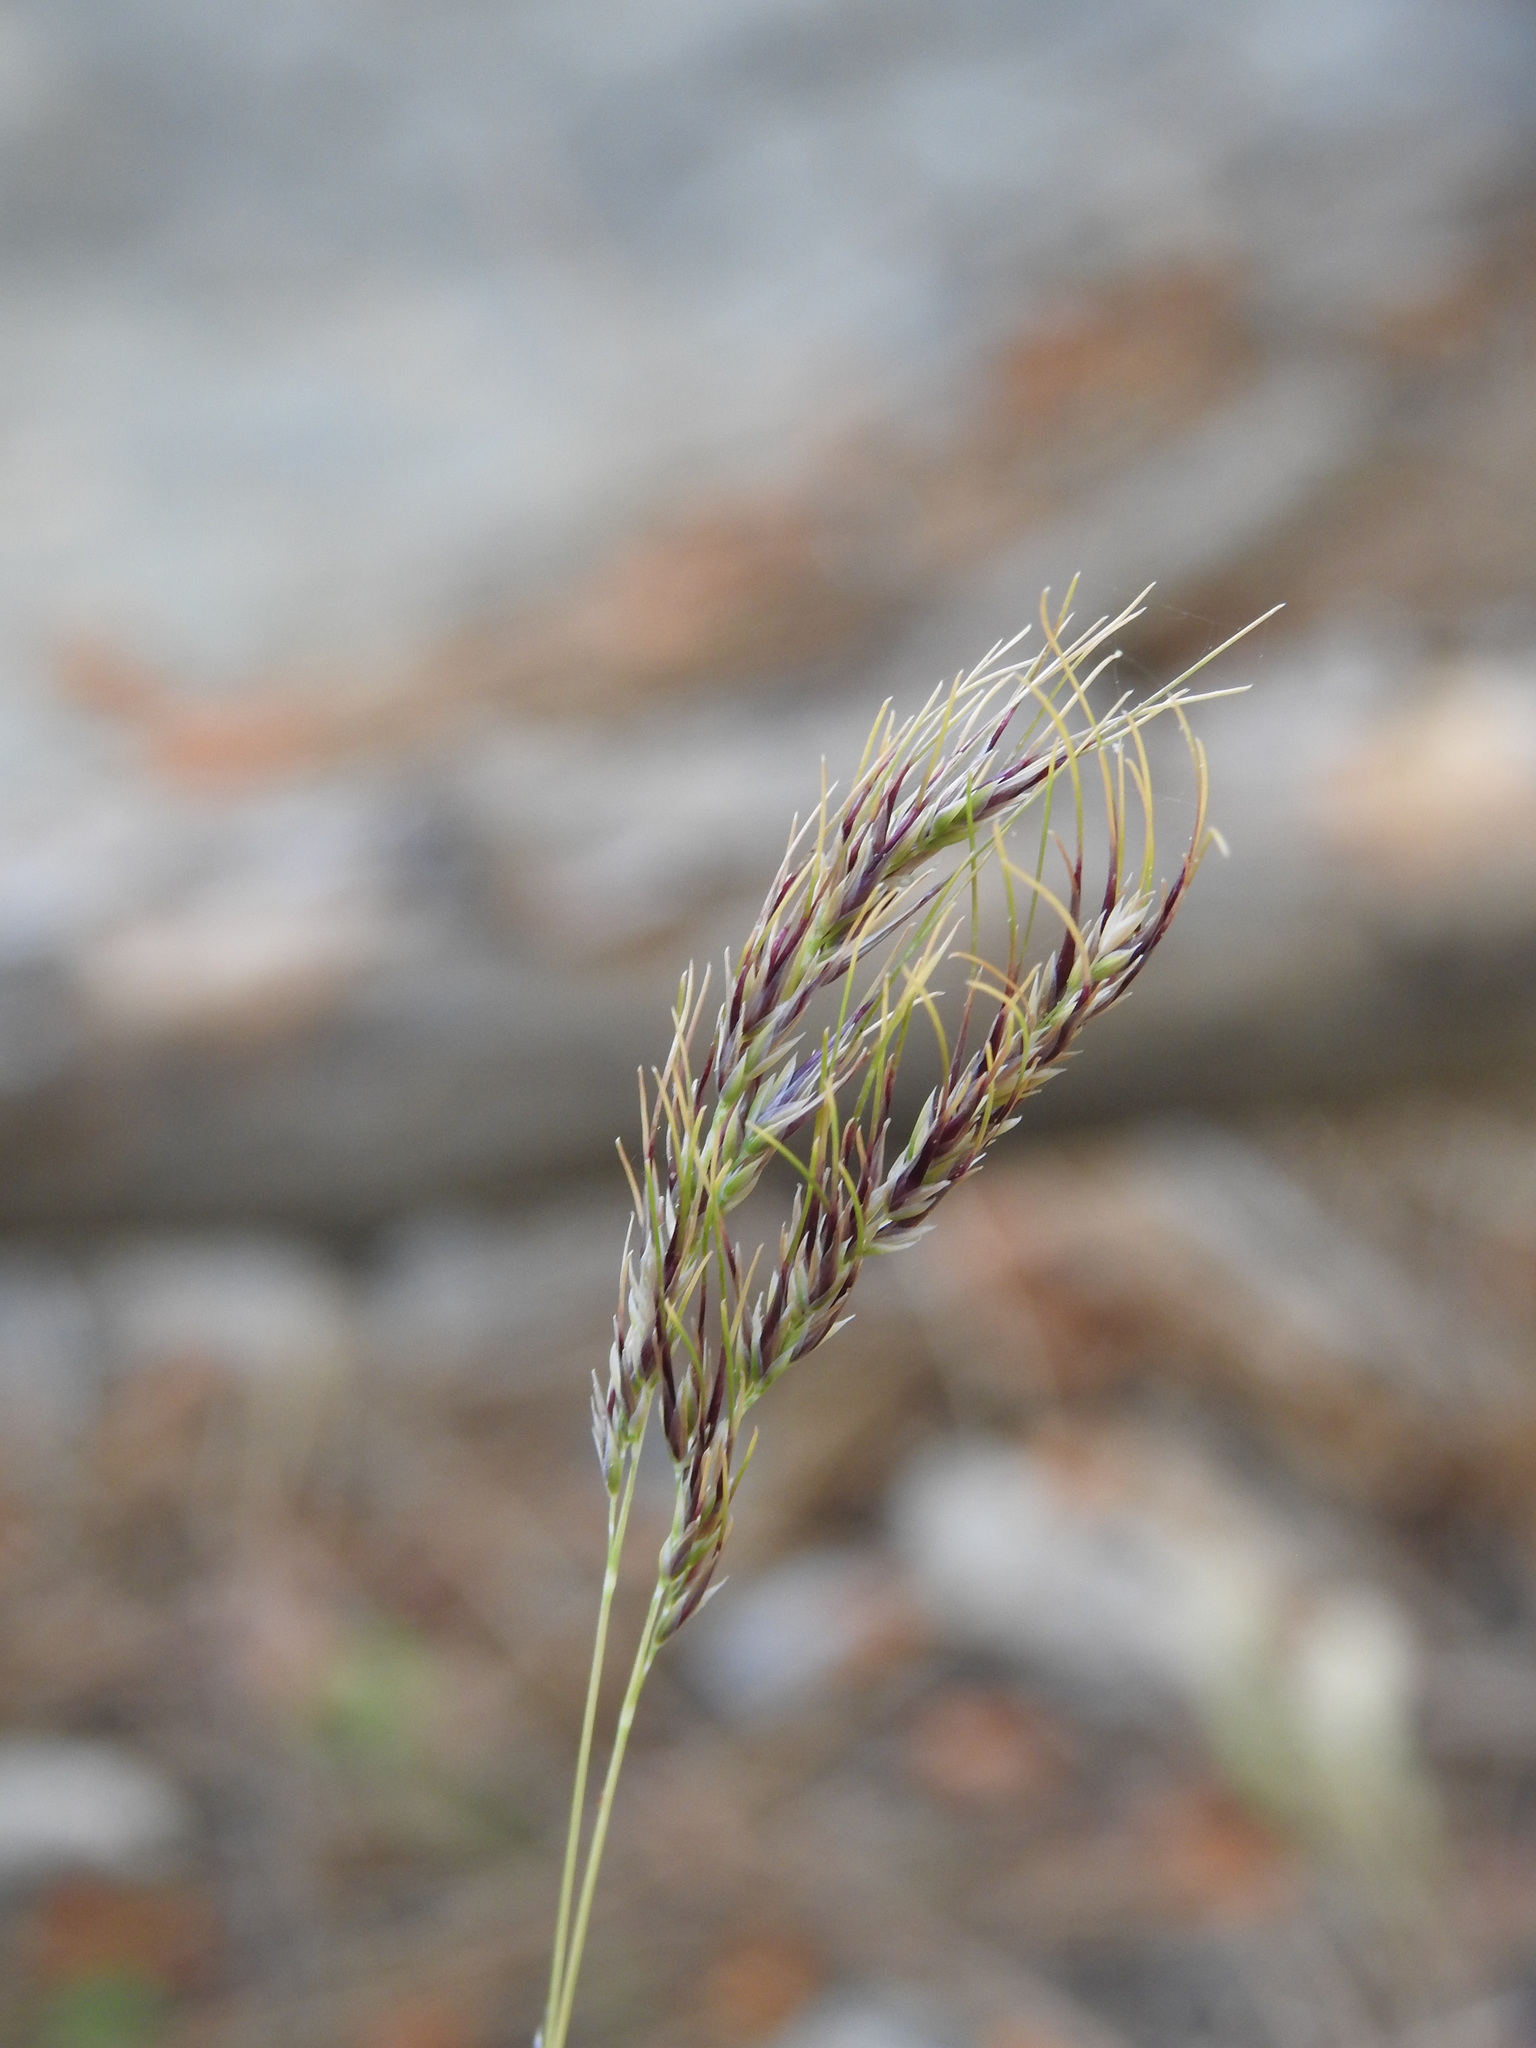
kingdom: Plantae
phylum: Tracheophyta
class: Liliopsida
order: Poales
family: Poaceae
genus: Poa
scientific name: Poa bulbosa
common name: Bulbous bluegrass
